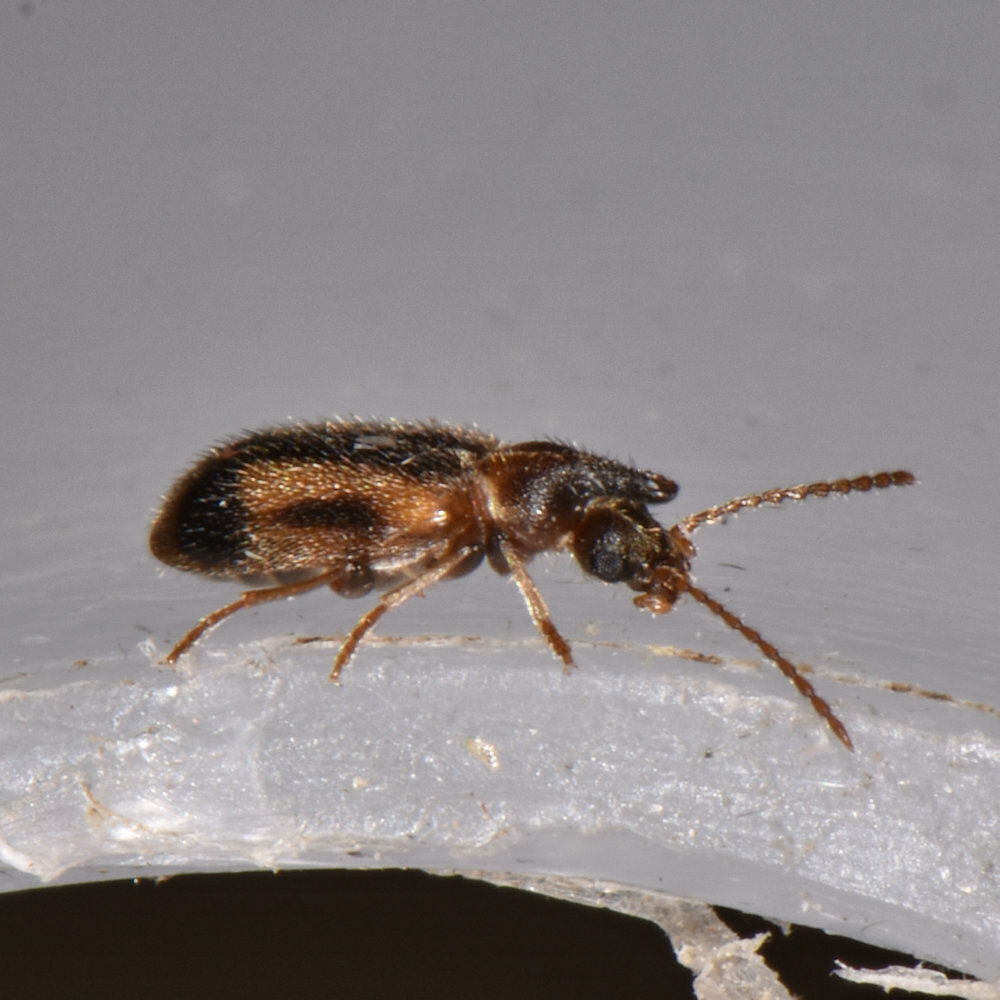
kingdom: Animalia
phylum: Arthropoda
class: Insecta
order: Coleoptera
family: Anthicidae
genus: Notoxus
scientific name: Notoxus anchora
